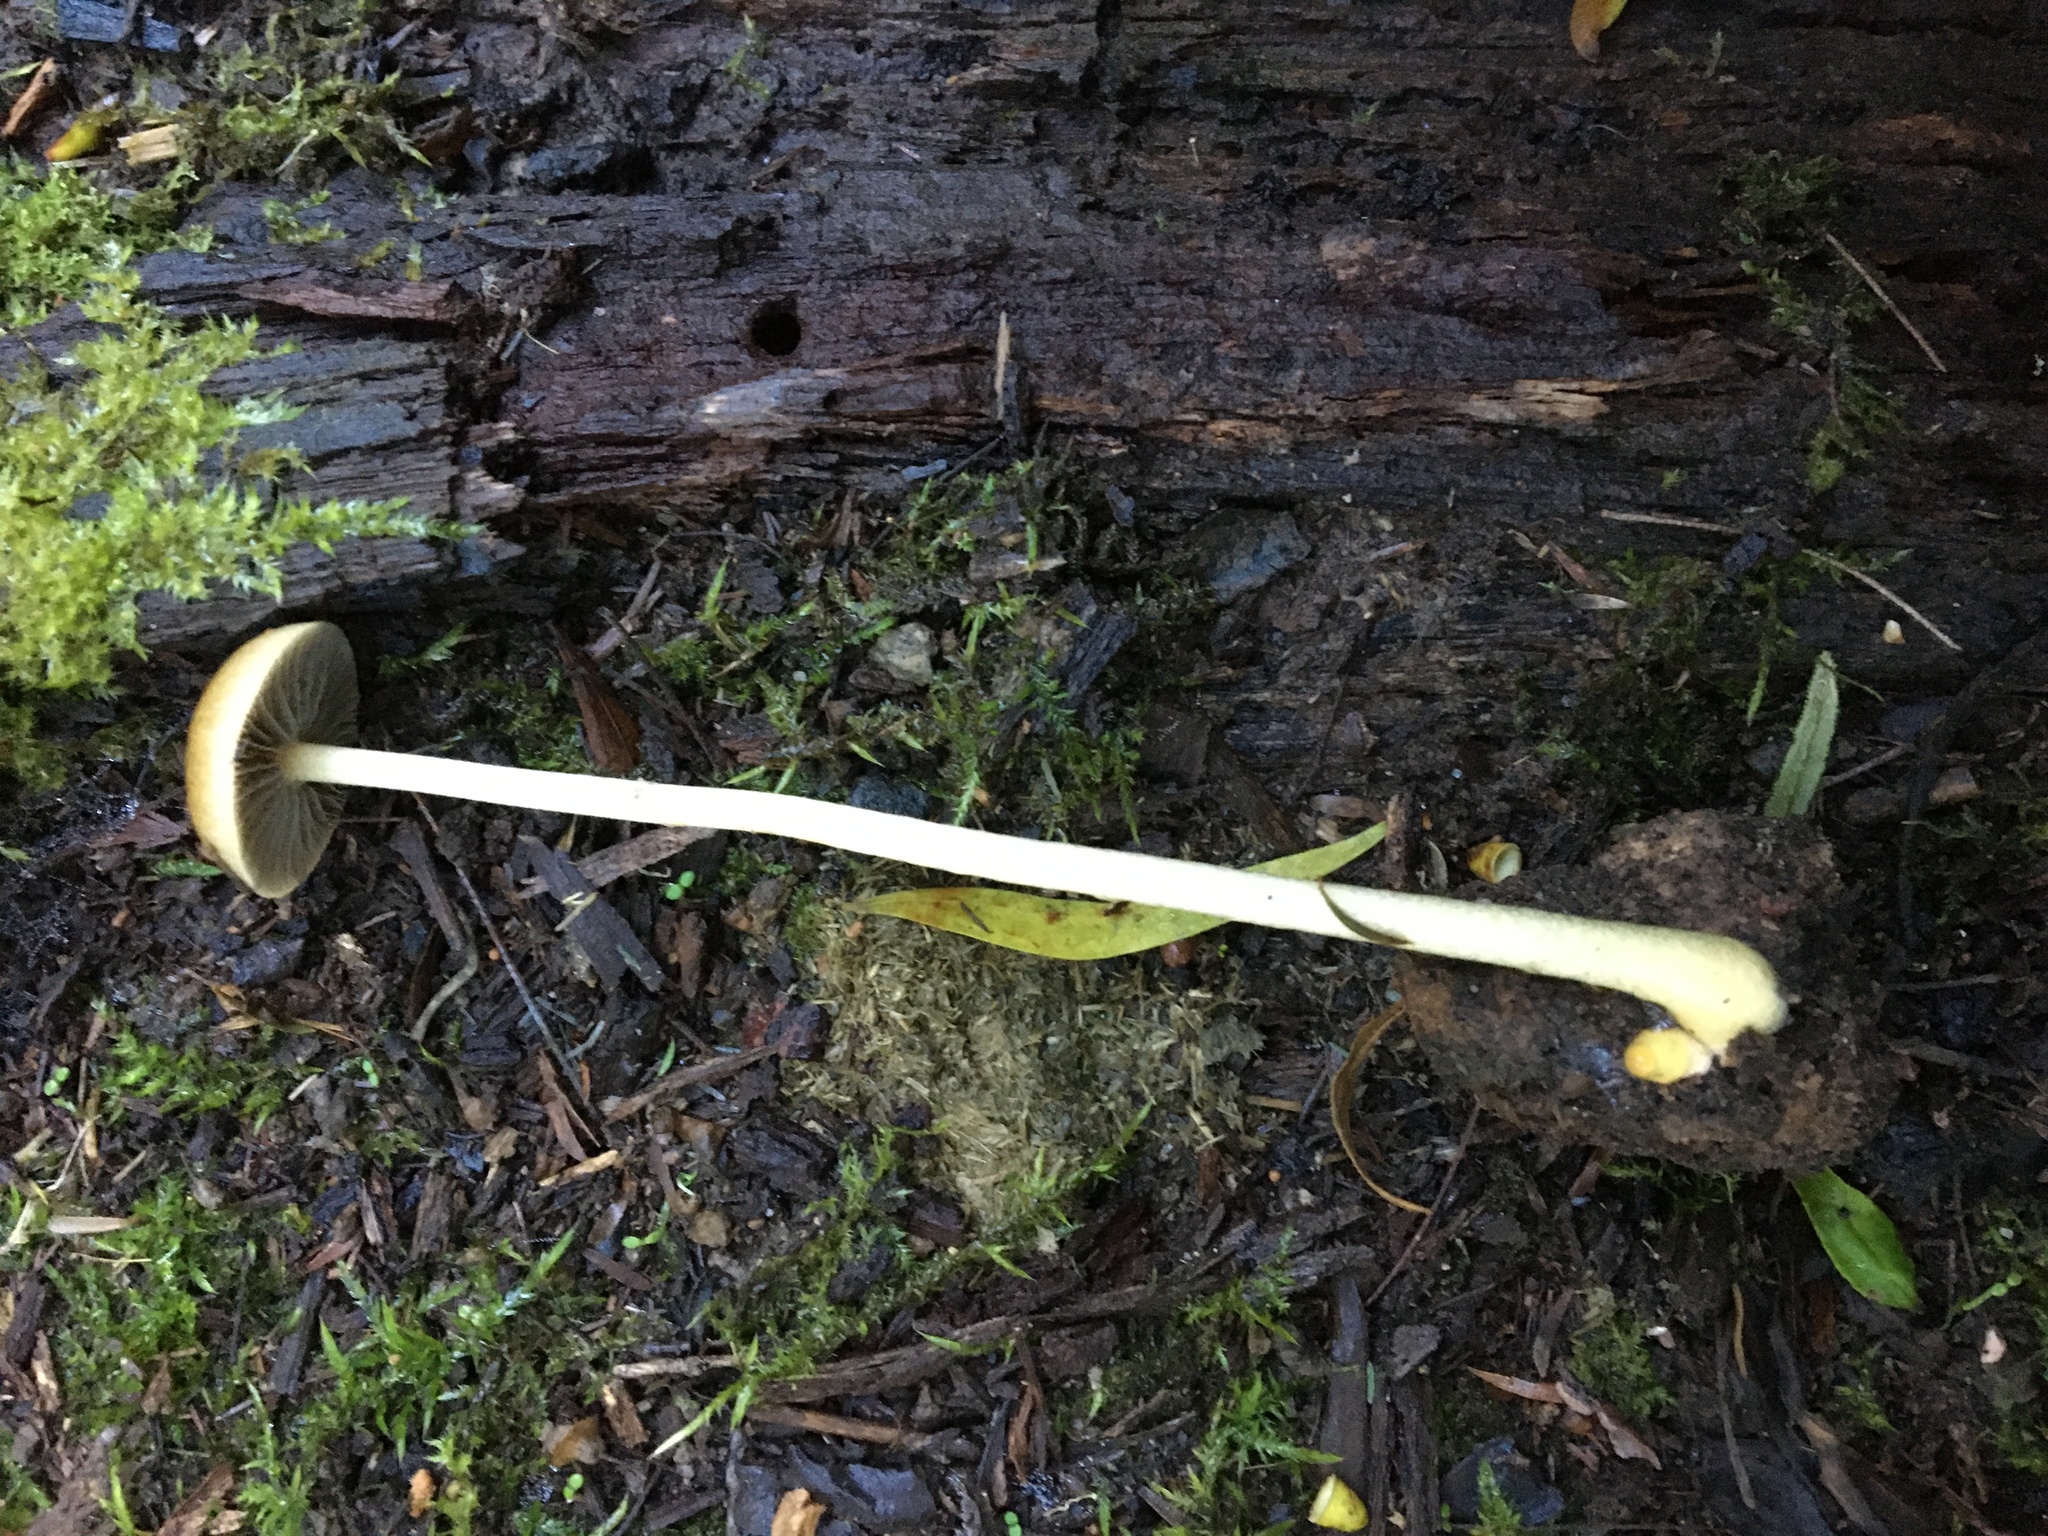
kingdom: Fungi
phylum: Basidiomycota
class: Agaricomycetes
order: Agaricales
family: Strophariaceae
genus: Protostropharia
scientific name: Protostropharia semiglobata
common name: Dung roundhead
